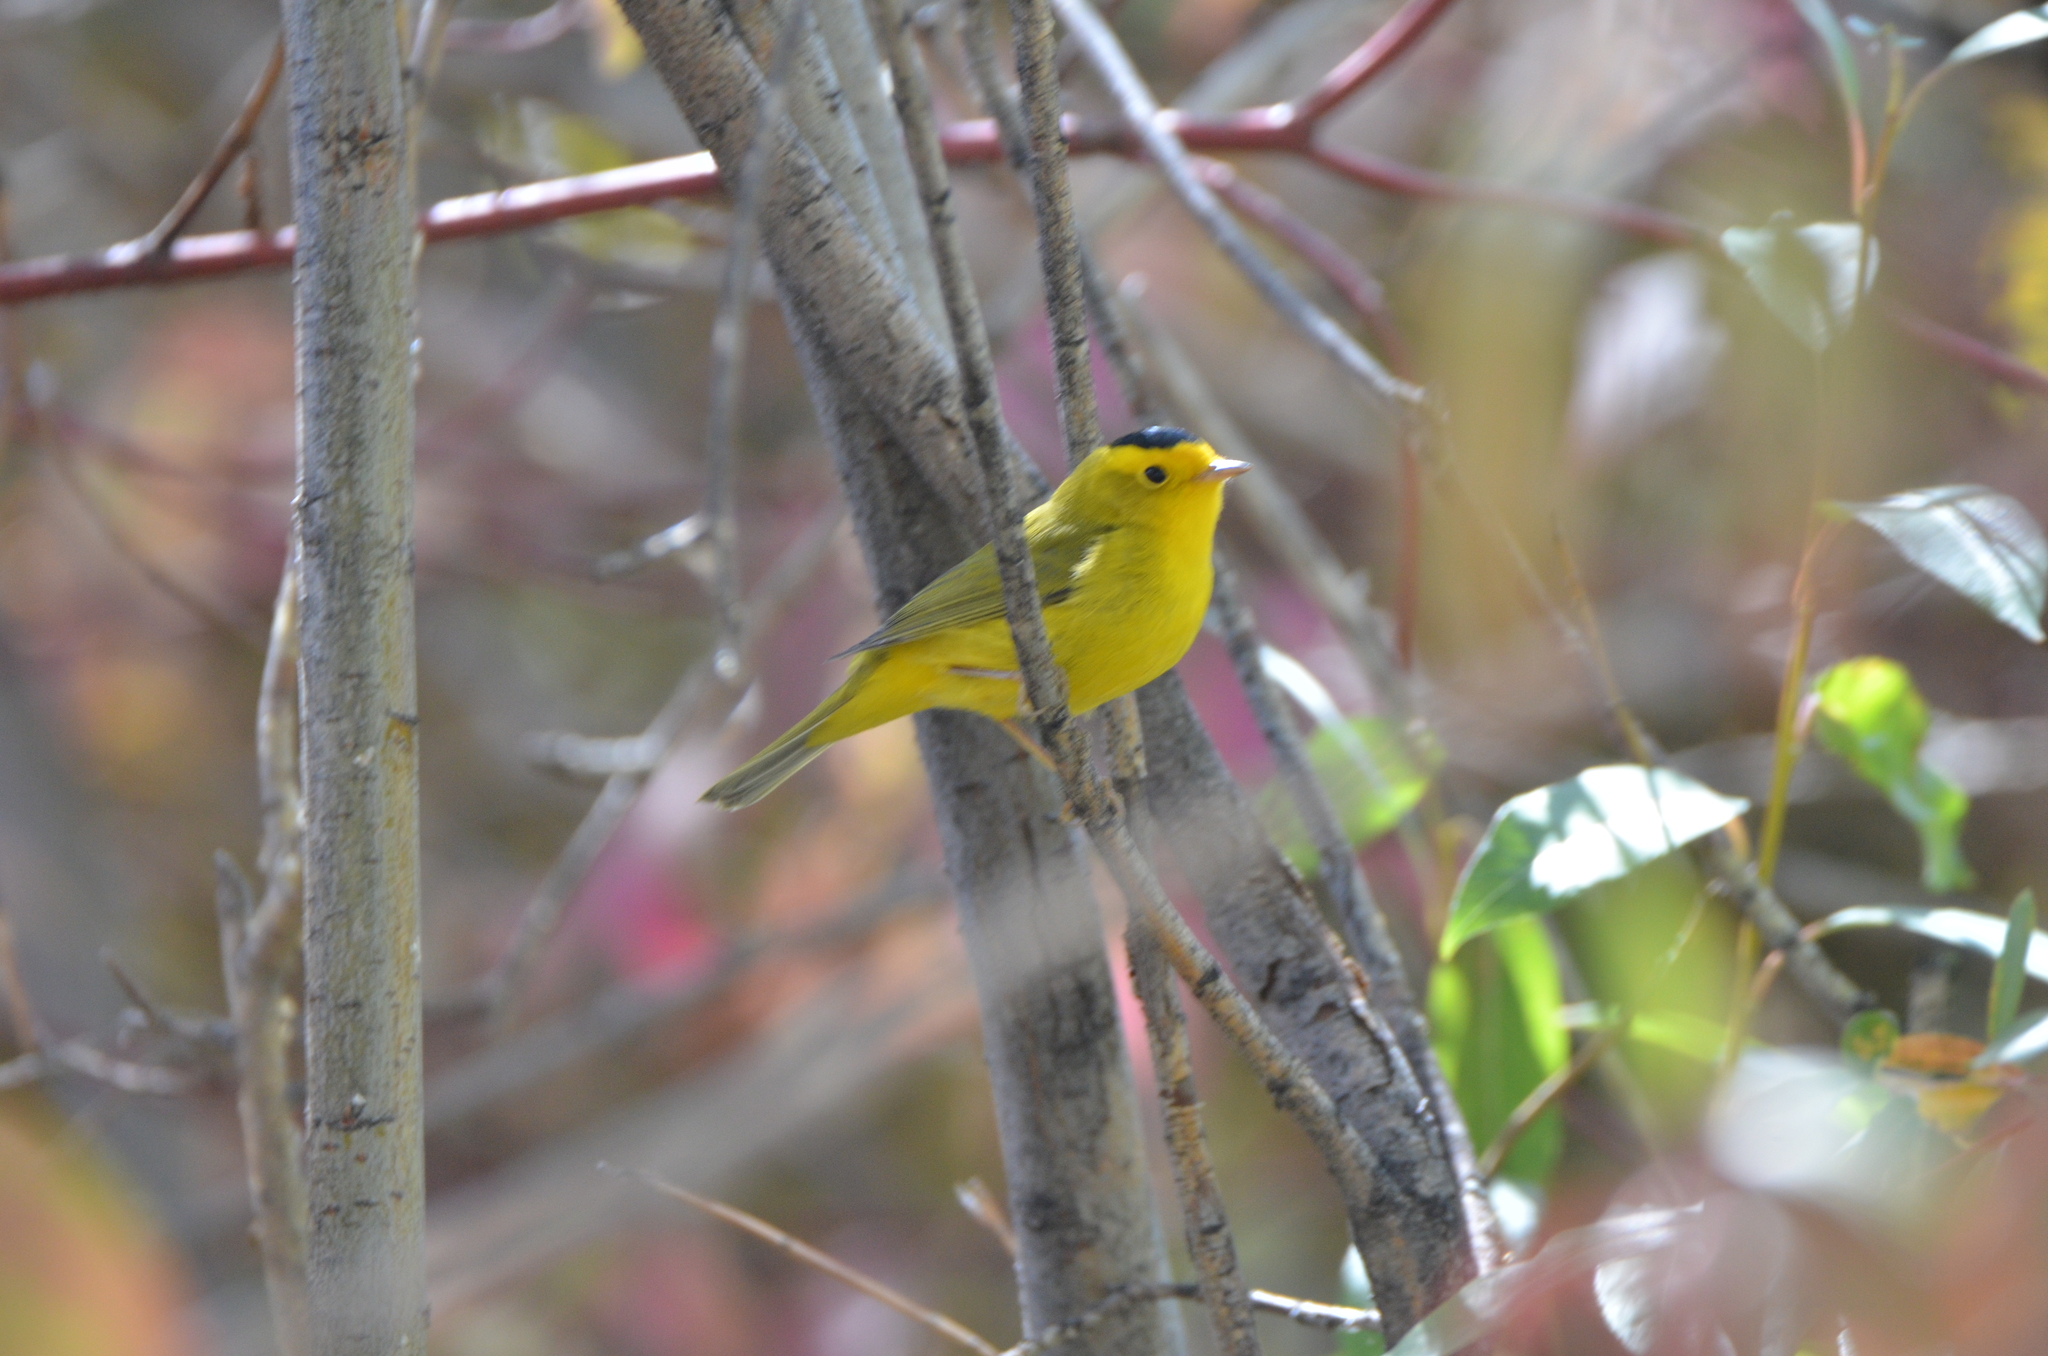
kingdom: Animalia
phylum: Chordata
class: Aves
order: Passeriformes
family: Parulidae
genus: Cardellina
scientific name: Cardellina pusilla
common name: Wilson's warbler
